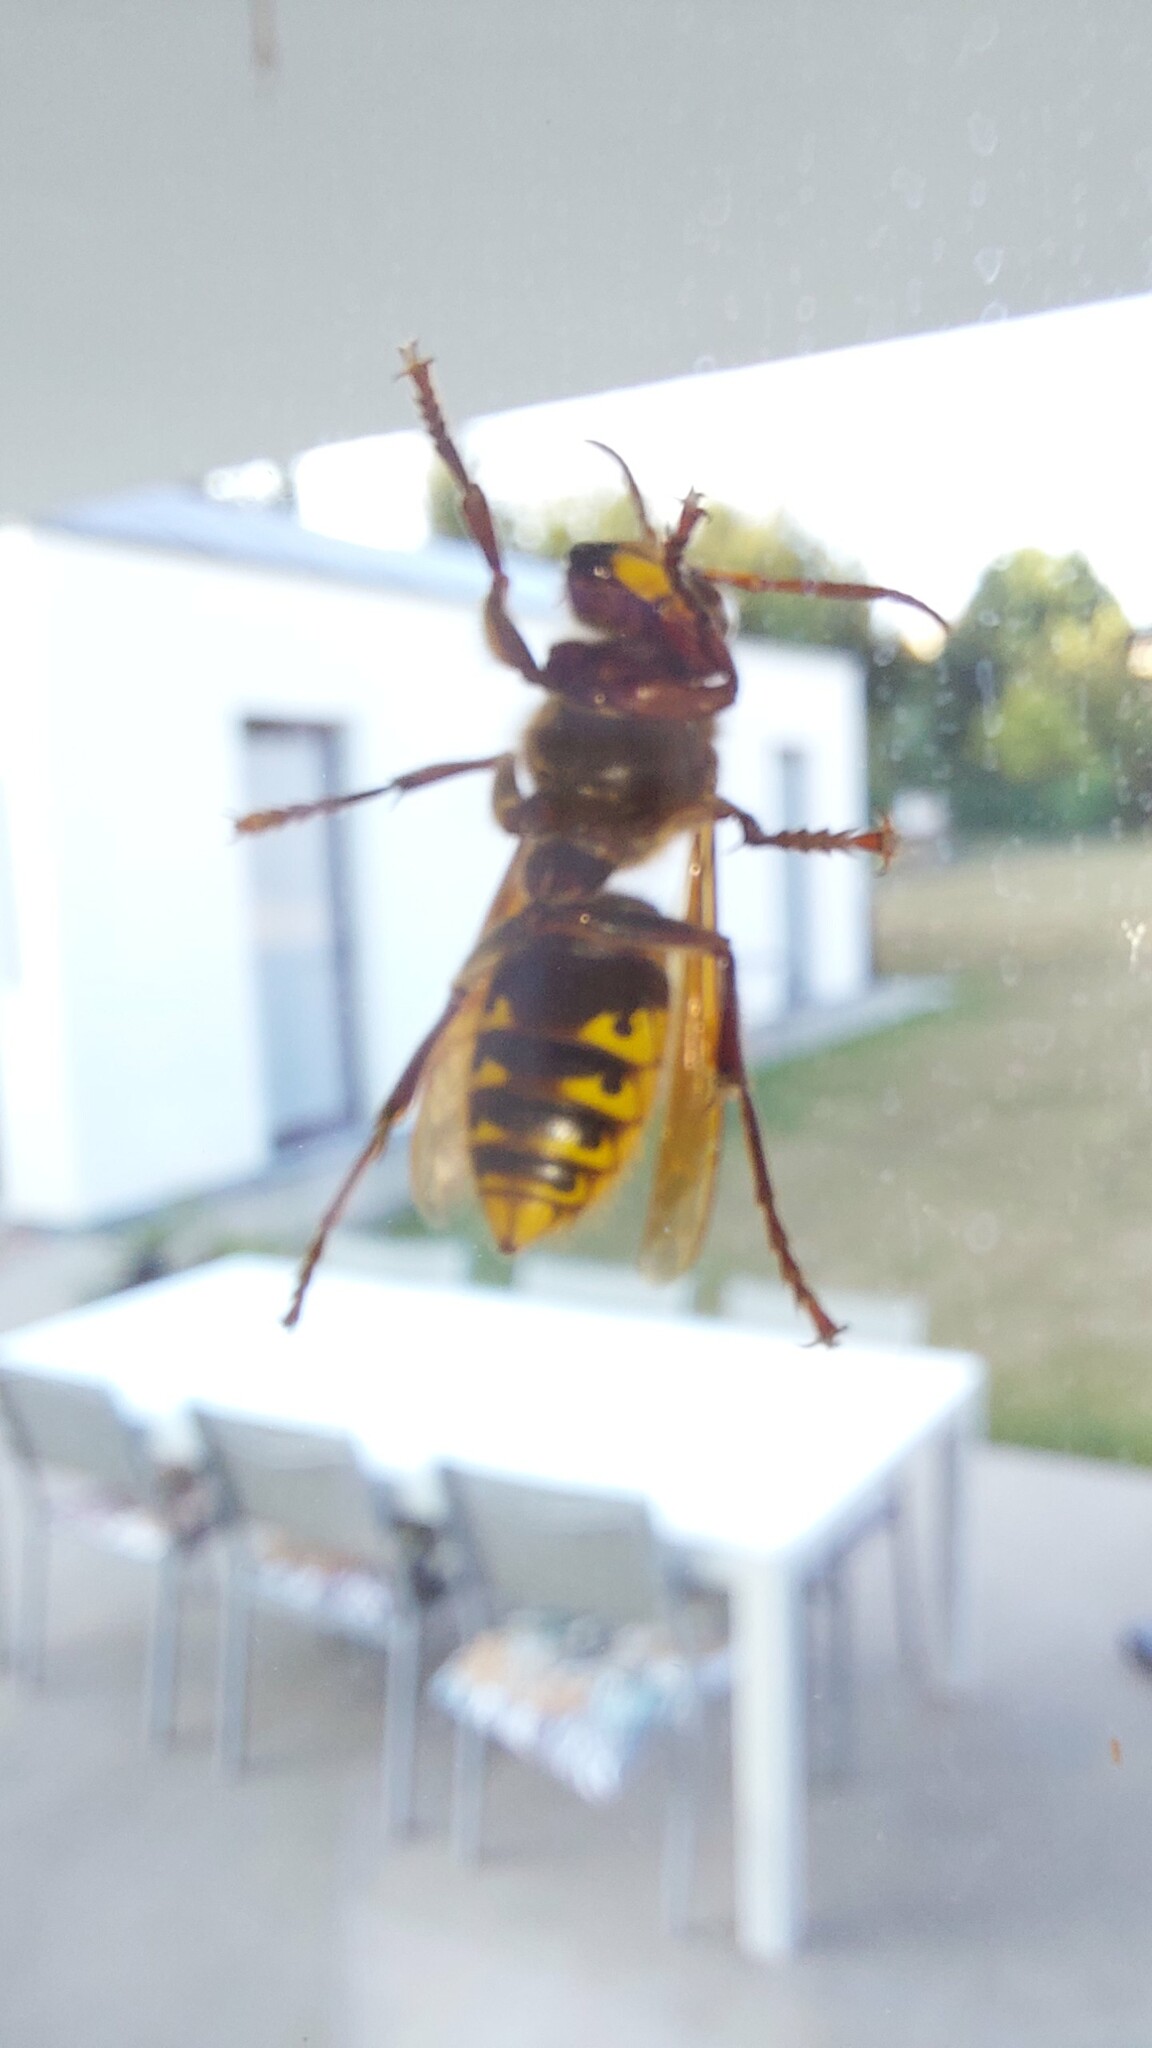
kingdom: Animalia
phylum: Arthropoda
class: Insecta
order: Hymenoptera
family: Vespidae
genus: Vespa
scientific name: Vespa crabro
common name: Hornet
